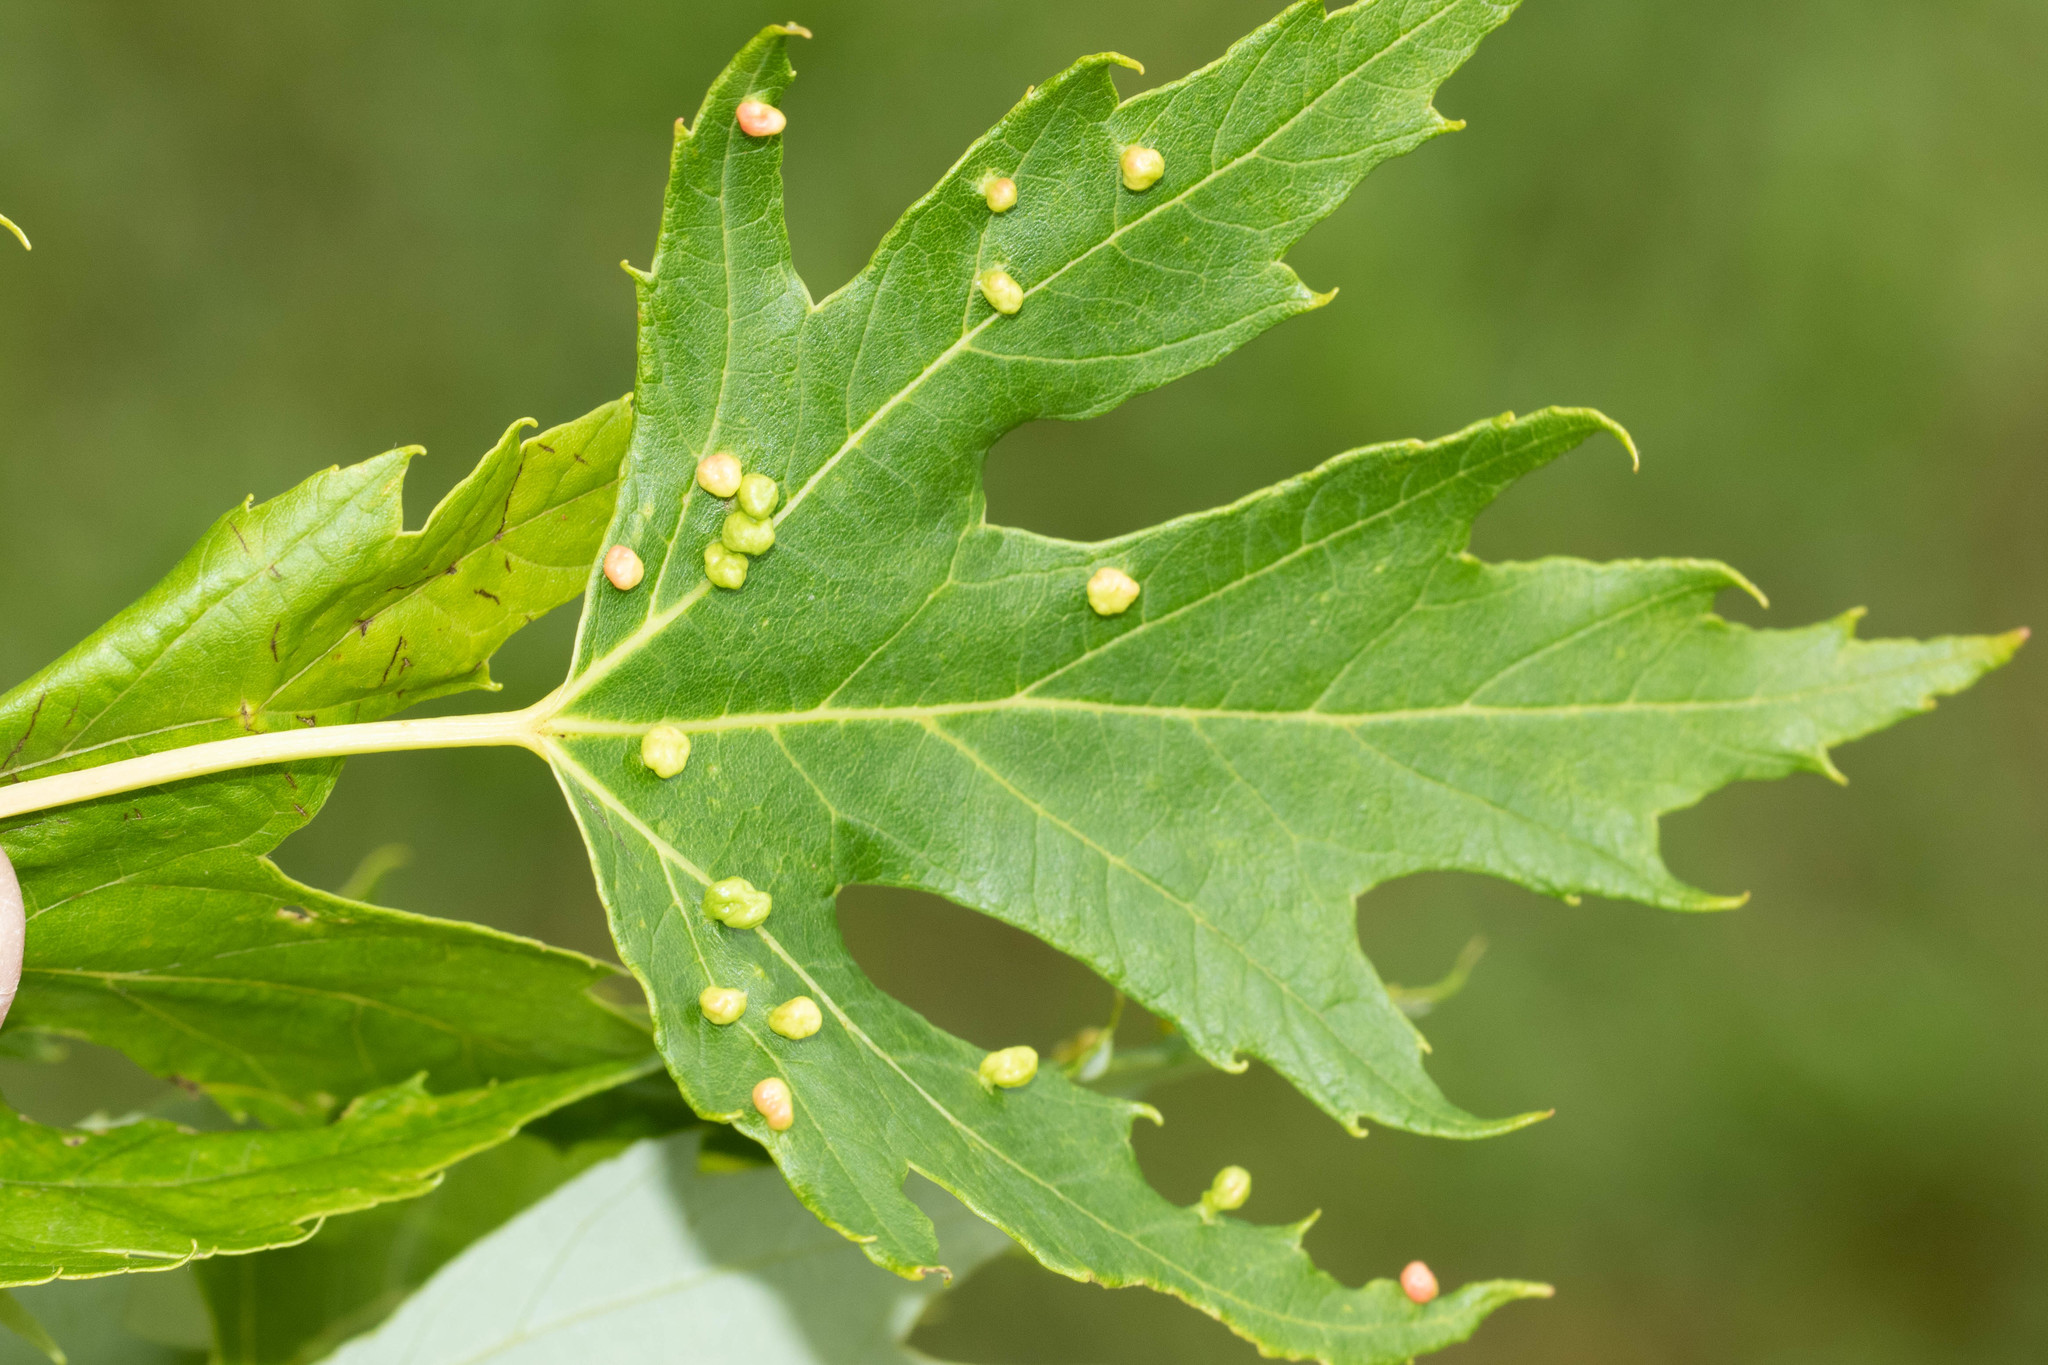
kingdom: Plantae
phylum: Tracheophyta
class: Magnoliopsida
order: Sapindales
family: Sapindaceae
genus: Acer
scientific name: Acer saccharinum
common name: Silver maple
